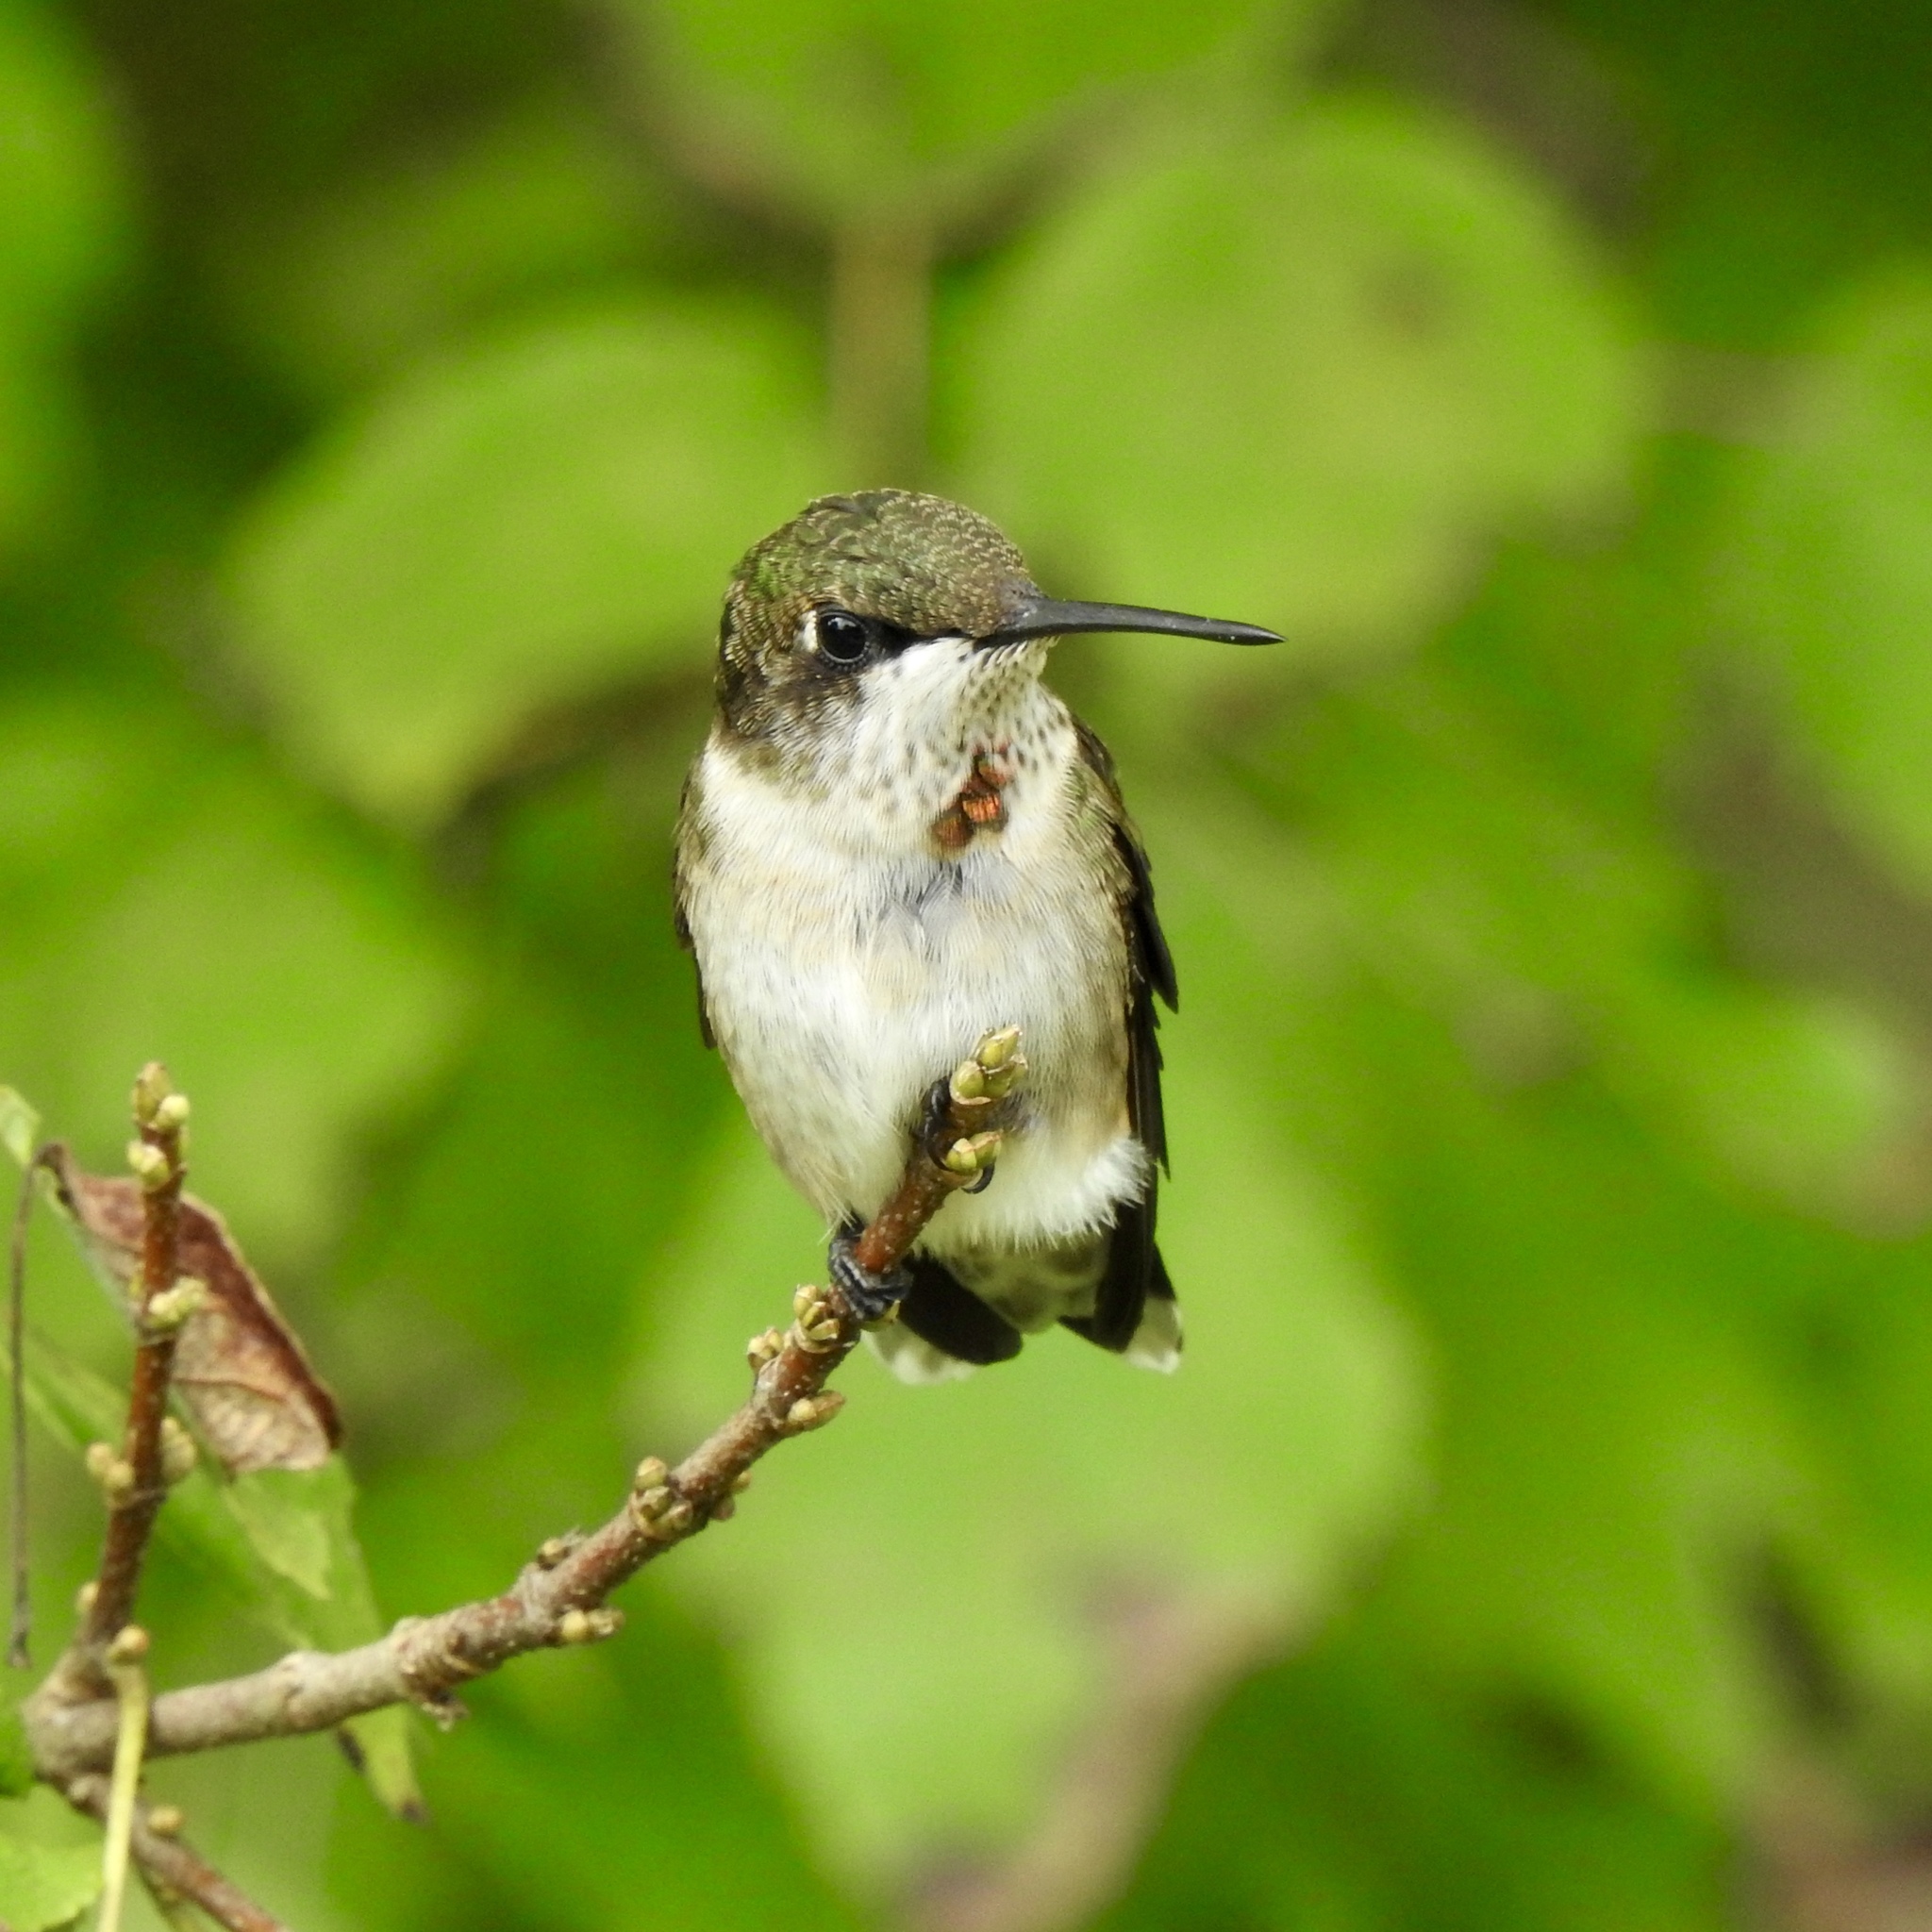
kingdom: Animalia
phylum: Chordata
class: Aves
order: Apodiformes
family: Trochilidae
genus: Archilochus
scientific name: Archilochus colubris
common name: Ruby-throated hummingbird
